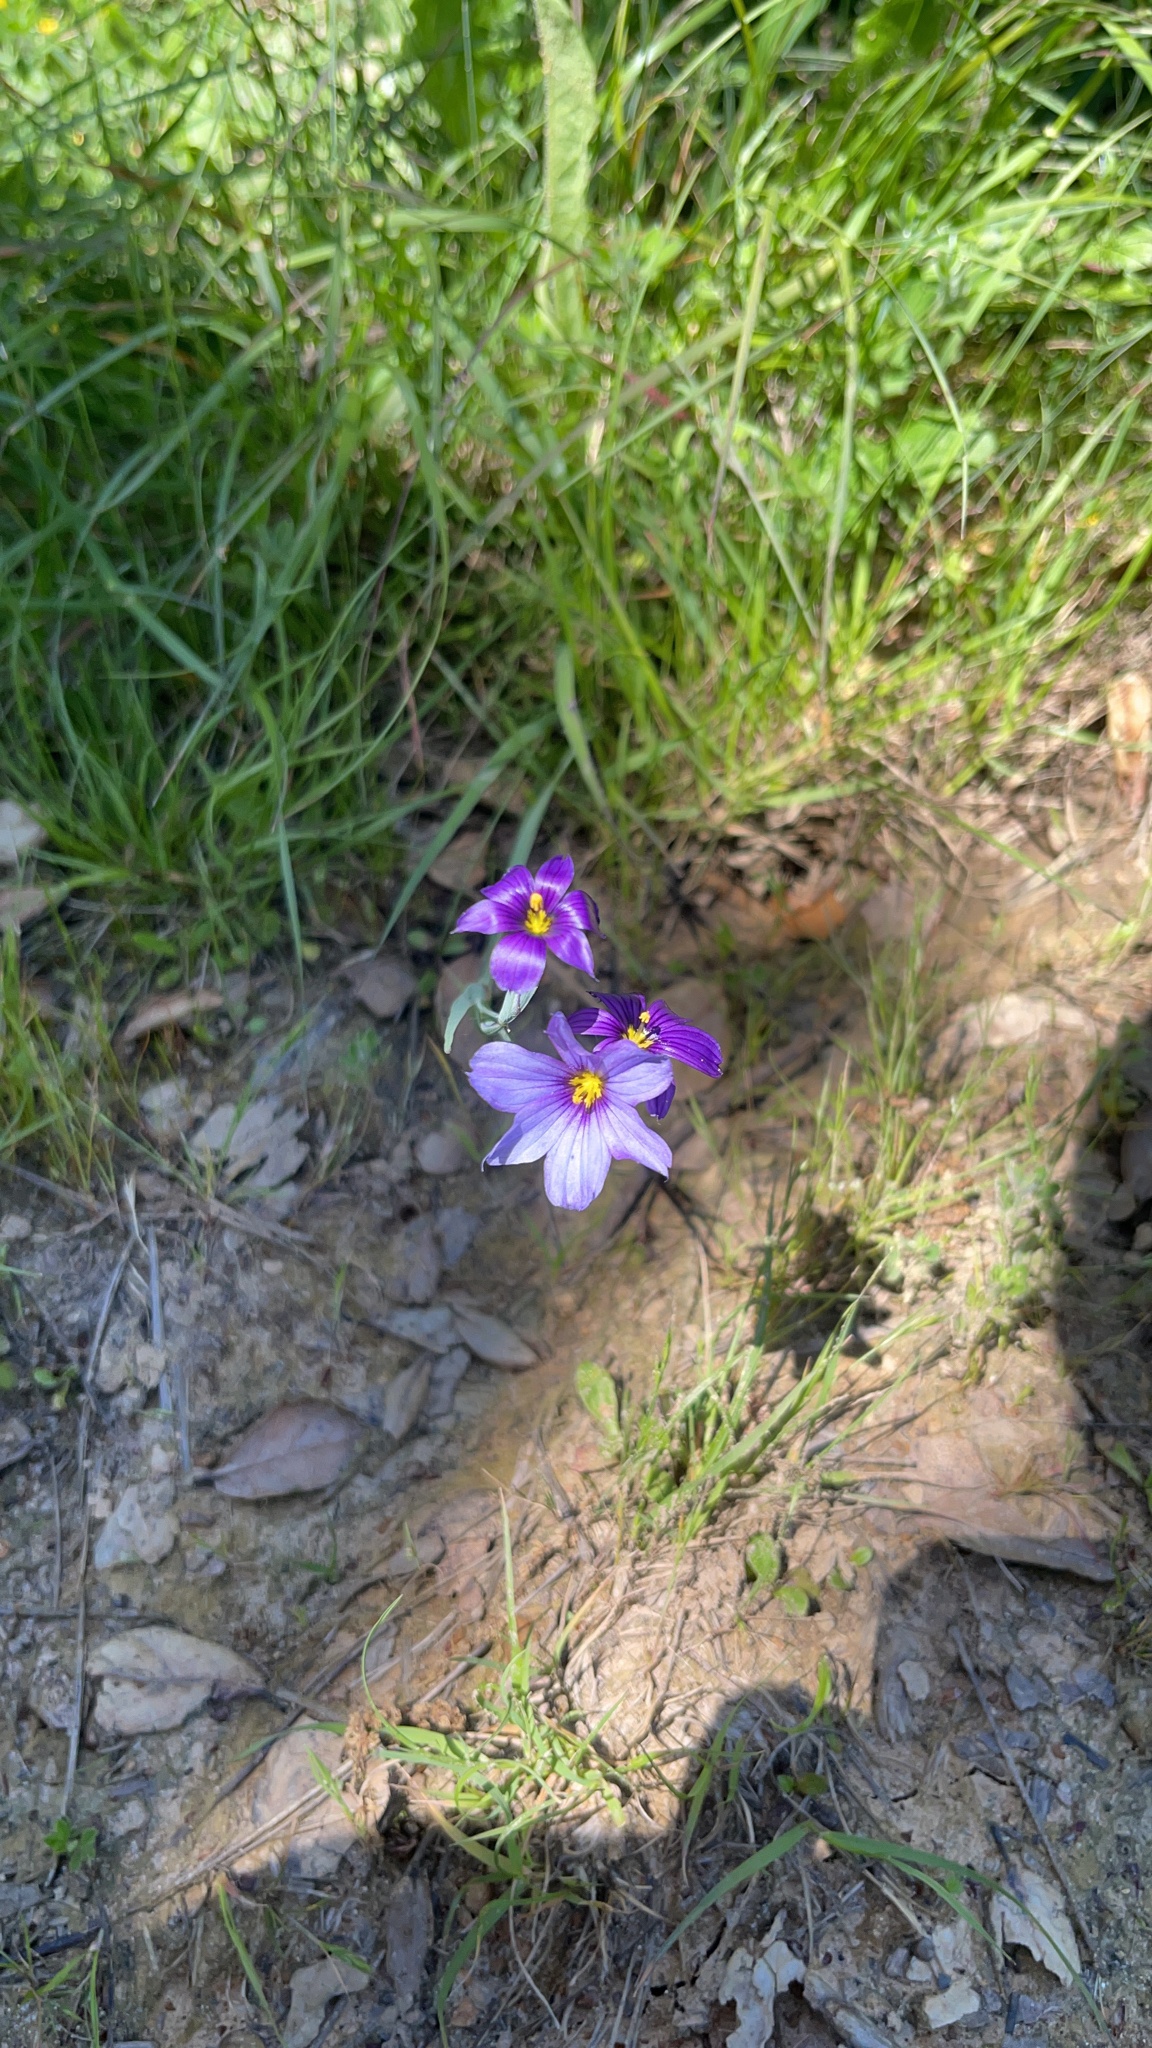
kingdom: Plantae
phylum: Tracheophyta
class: Liliopsida
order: Asparagales
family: Iridaceae
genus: Sisyrinchium
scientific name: Sisyrinchium bellum
